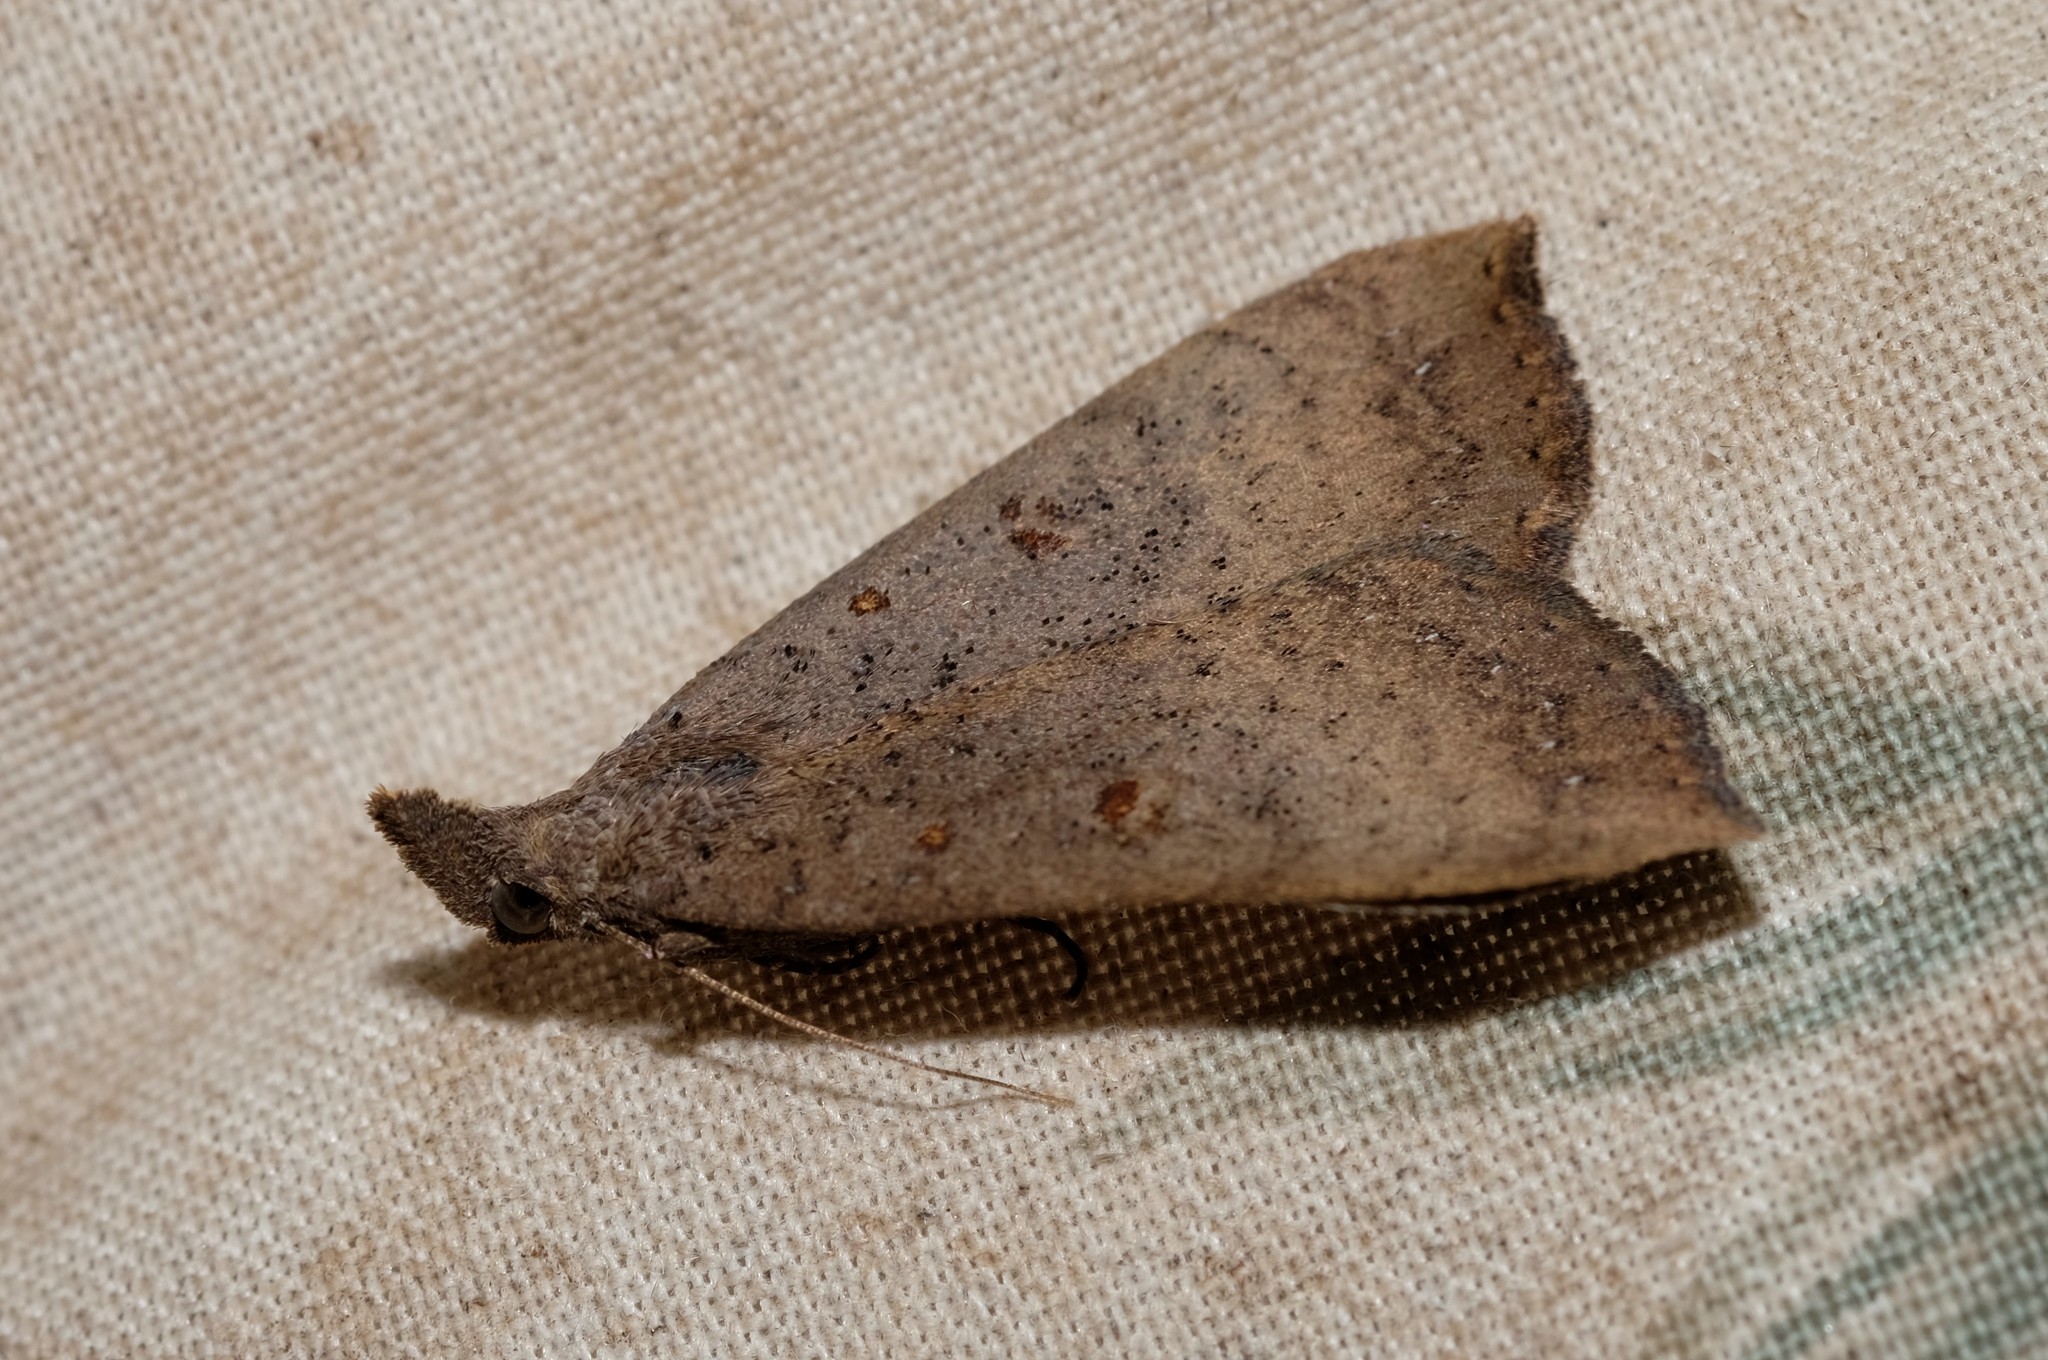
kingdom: Animalia
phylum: Arthropoda
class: Insecta
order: Lepidoptera
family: Erebidae
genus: Rhapsa
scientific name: Rhapsa suscitatalis
